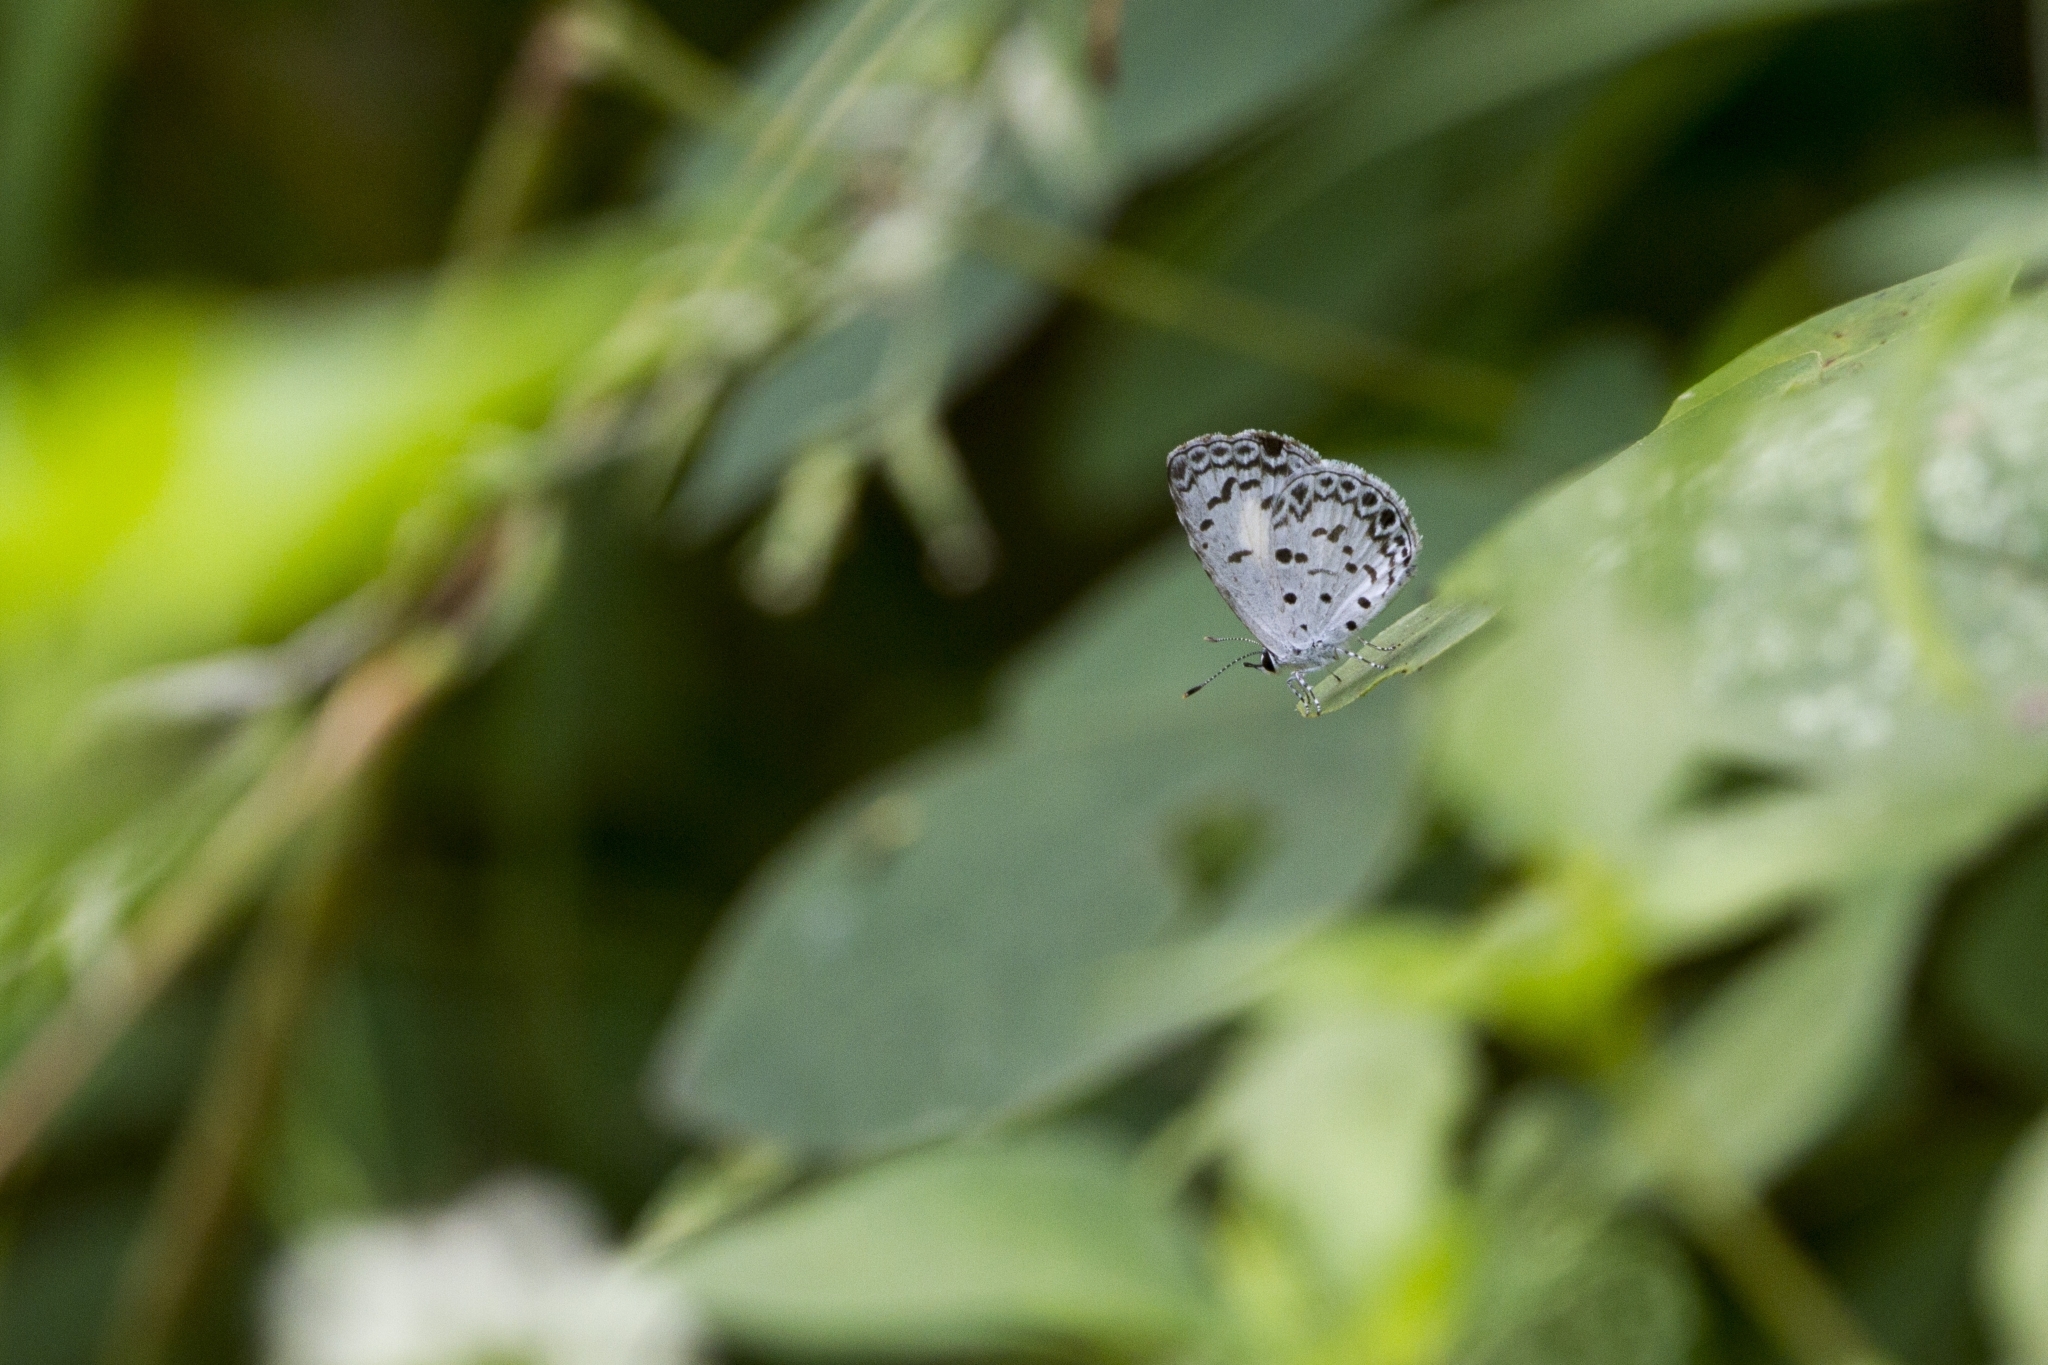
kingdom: Animalia
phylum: Arthropoda
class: Insecta
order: Lepidoptera
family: Lycaenidae
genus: Acytolepis
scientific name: Acytolepis puspa
